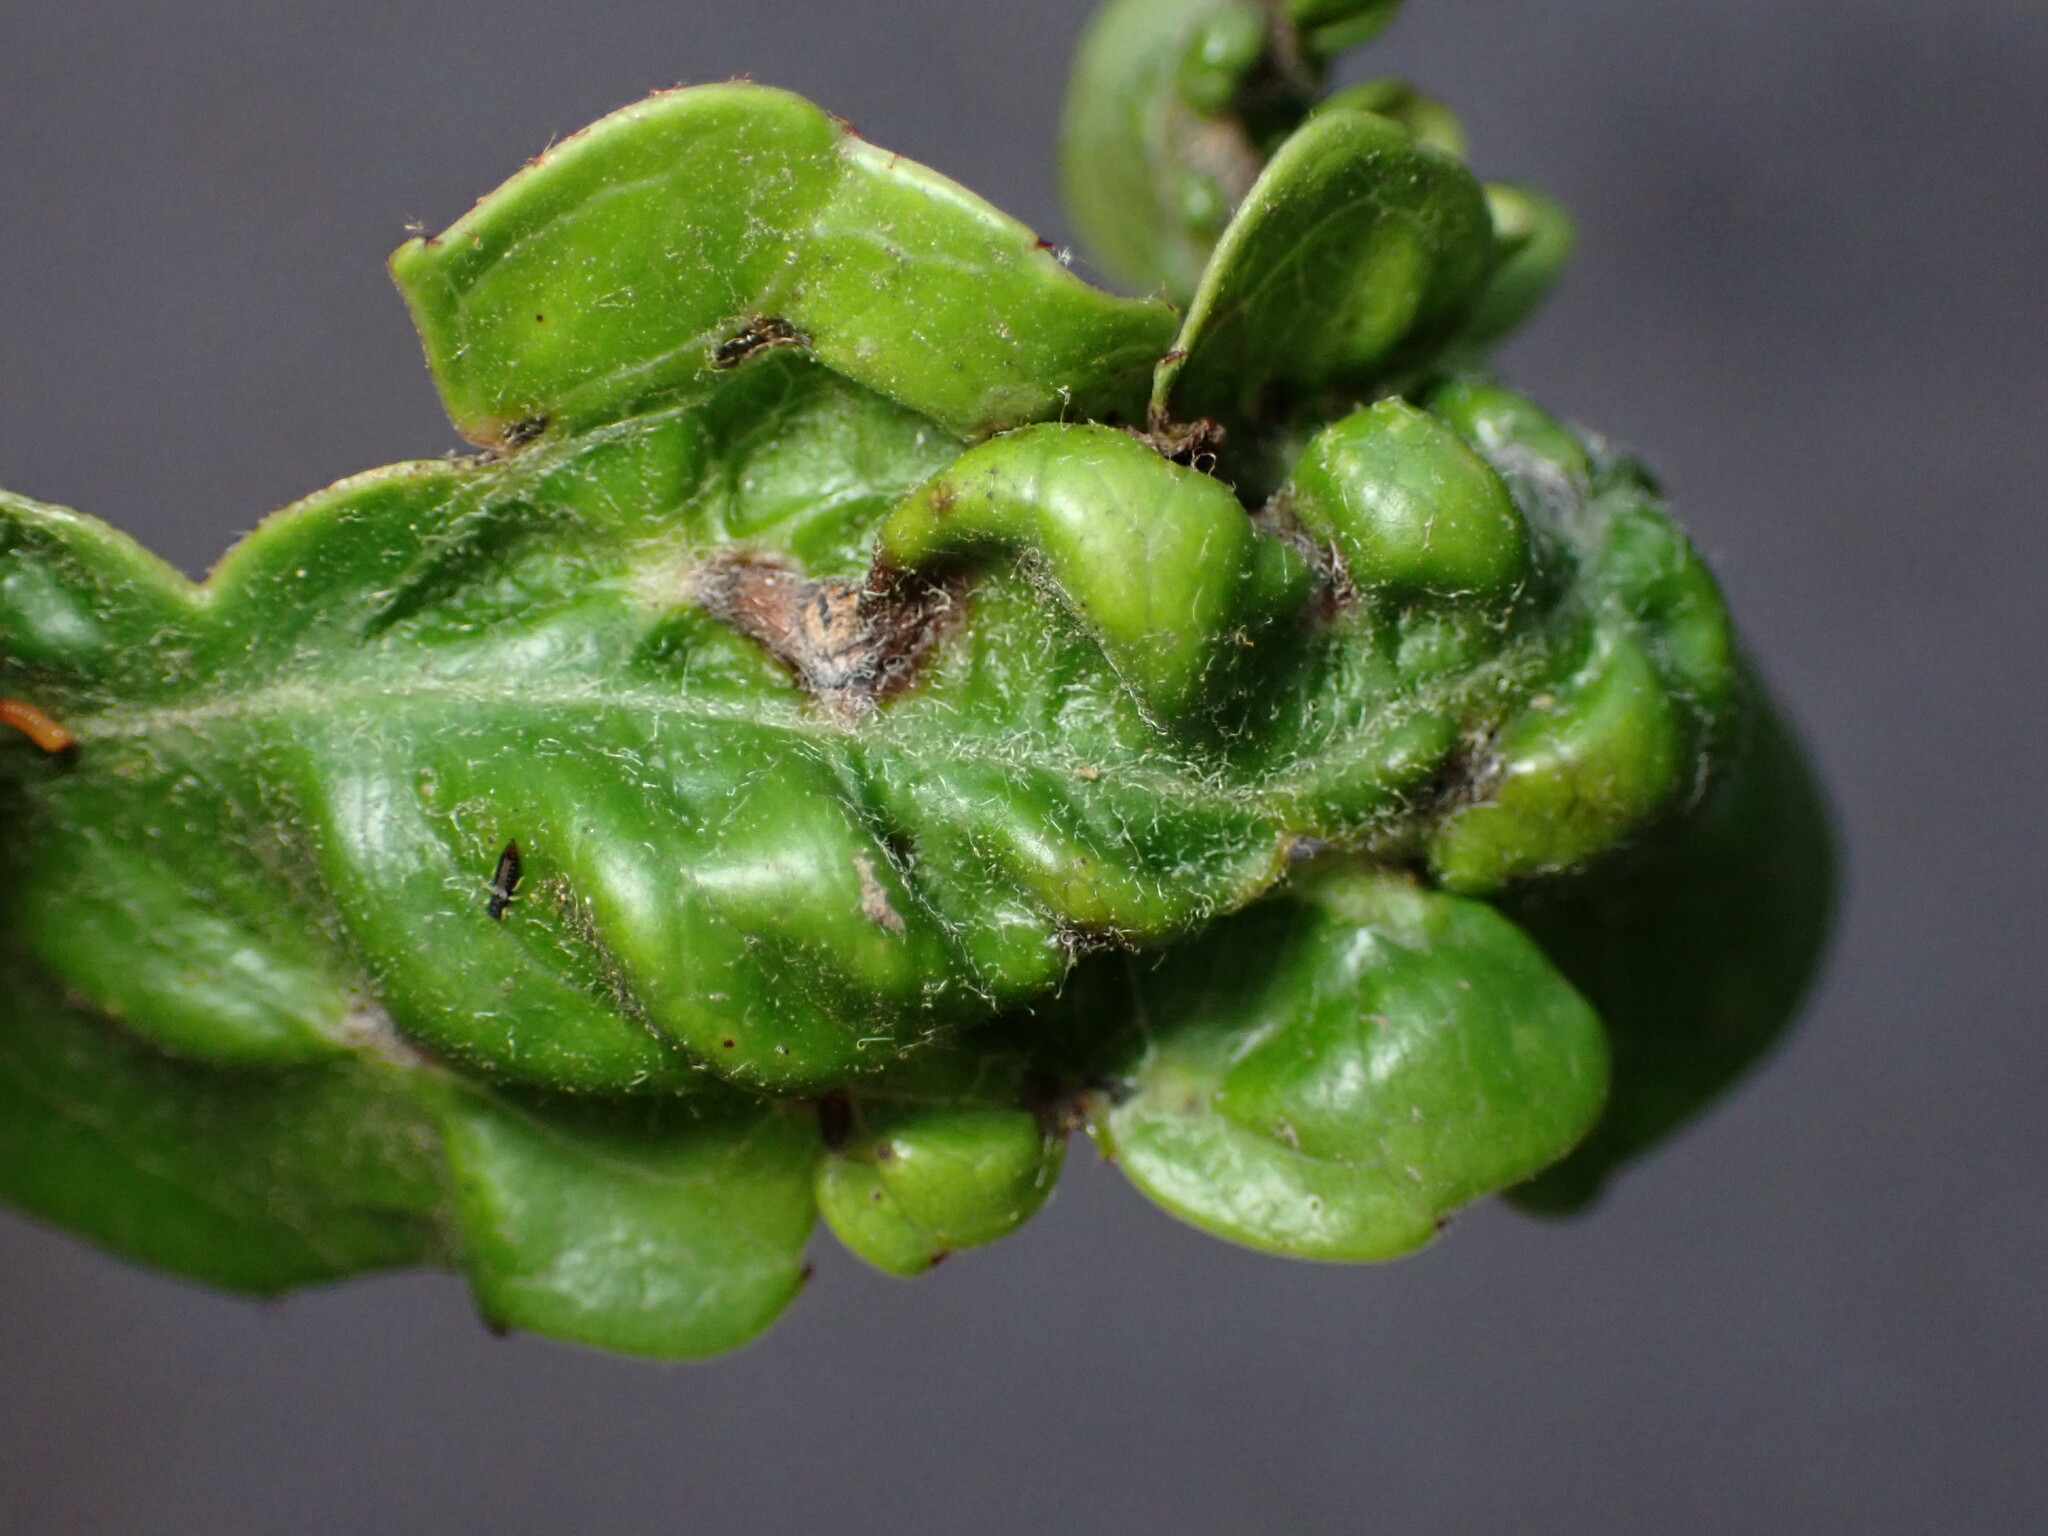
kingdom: Animalia
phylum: Arthropoda
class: Insecta
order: Thysanoptera
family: Phlaeothripidae
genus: Liothrips
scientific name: Liothrips ilex
